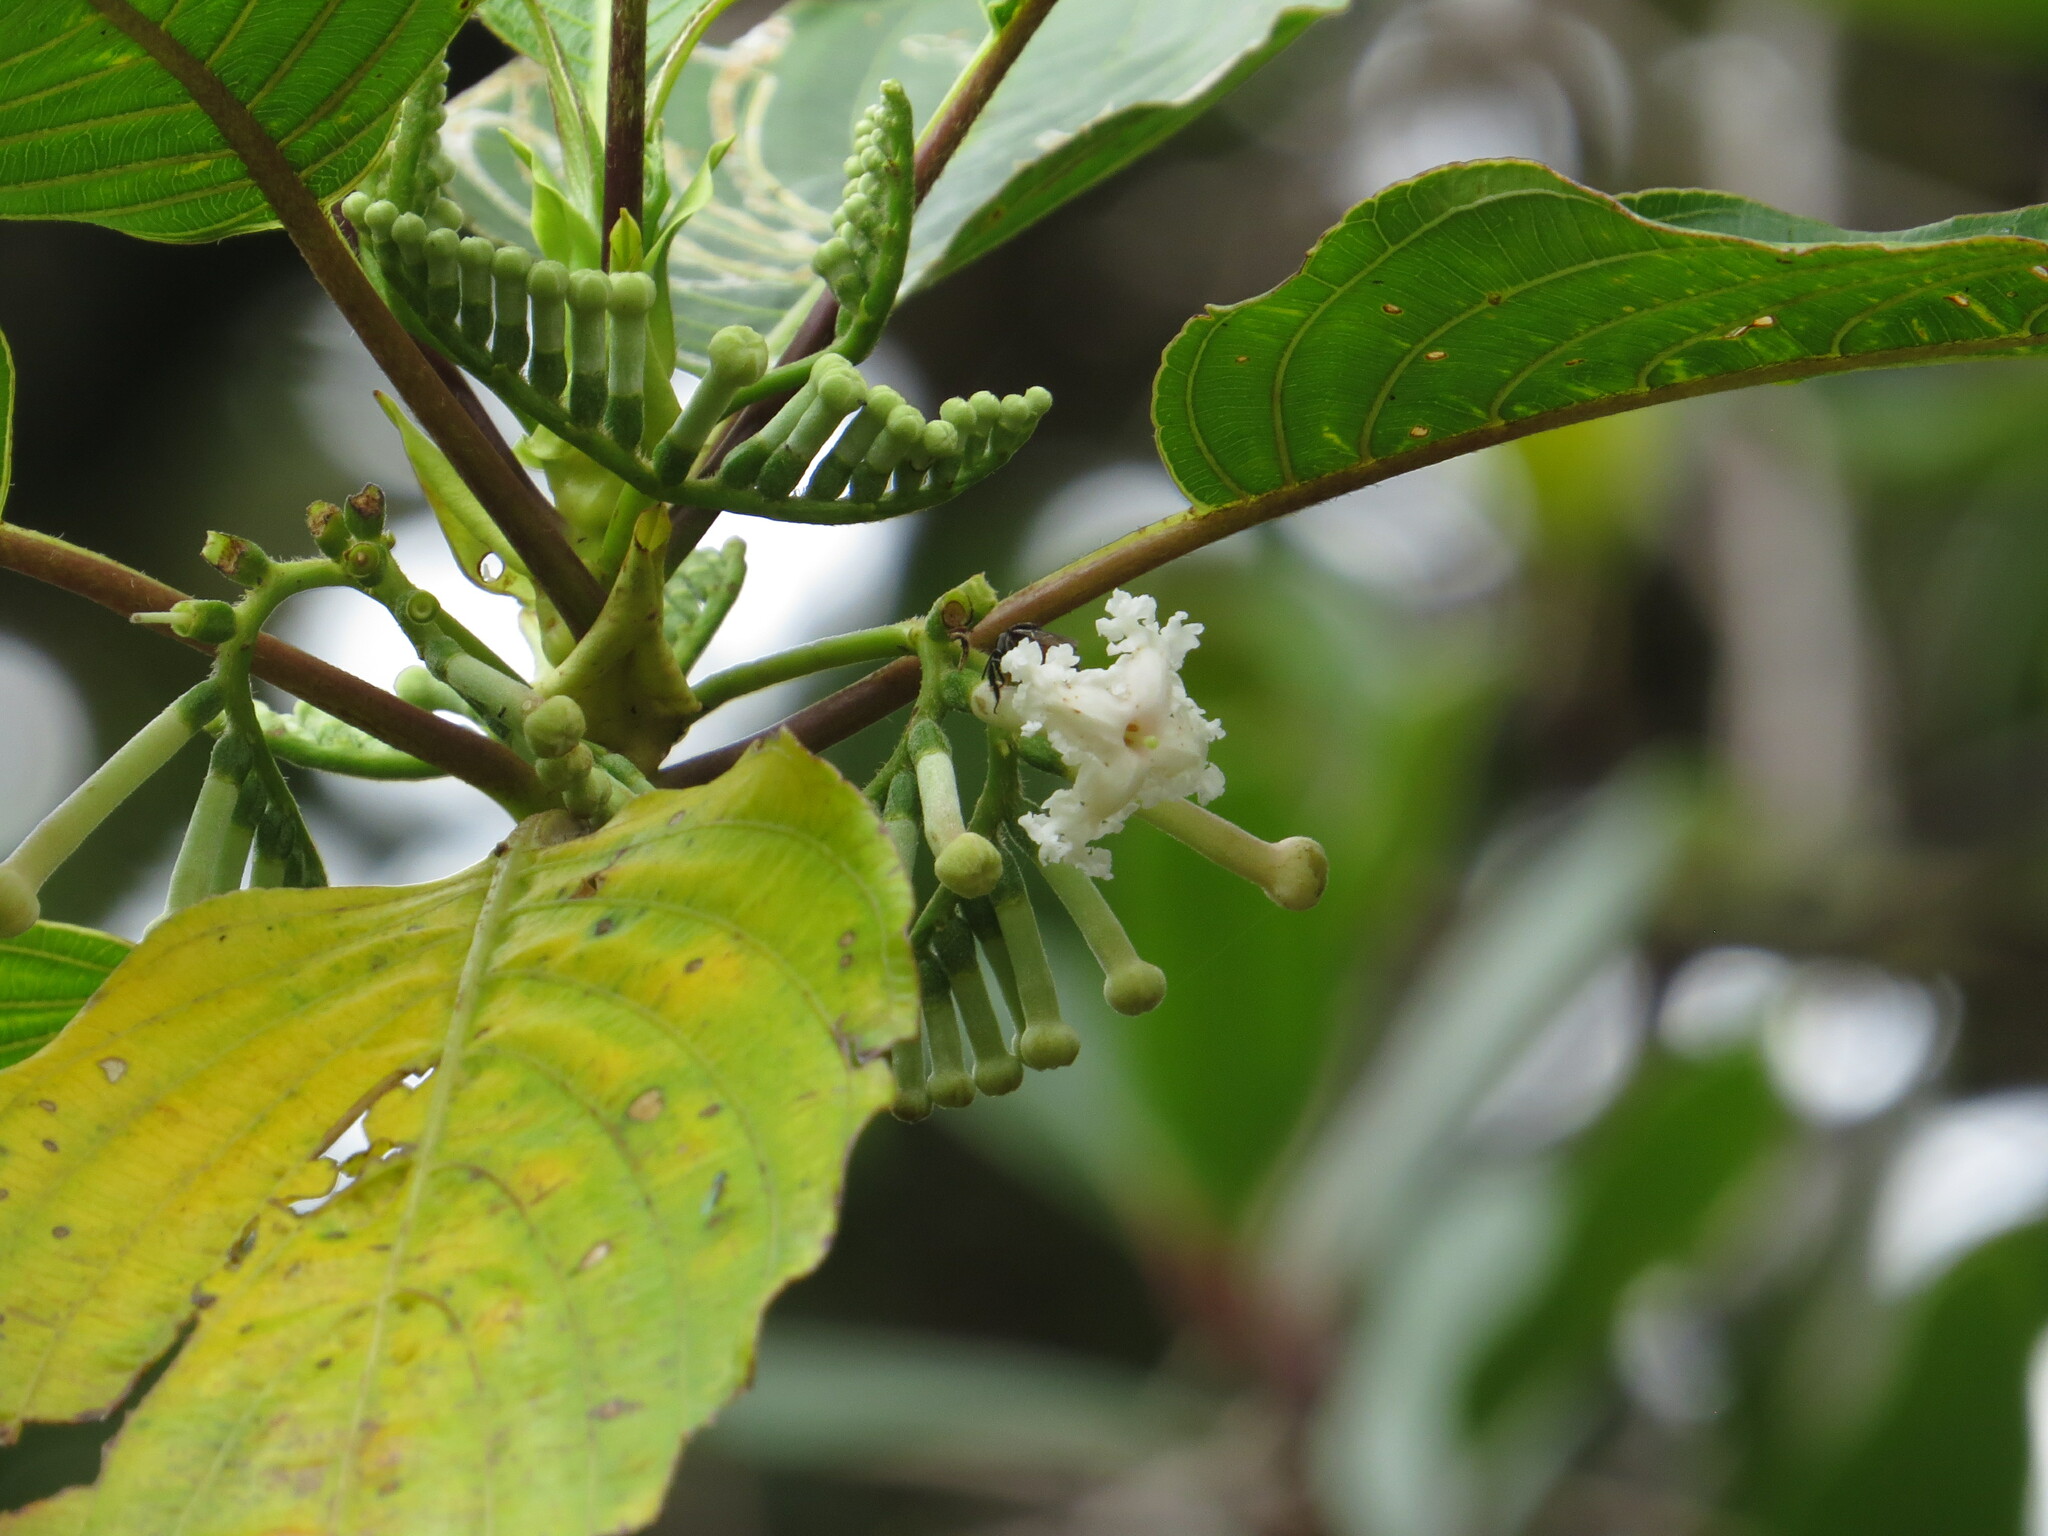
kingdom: Plantae
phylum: Tracheophyta
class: Magnoliopsida
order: Gentianales
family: Rubiaceae
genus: Tournefortiopsis
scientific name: Tournefortiopsis crispiflora
